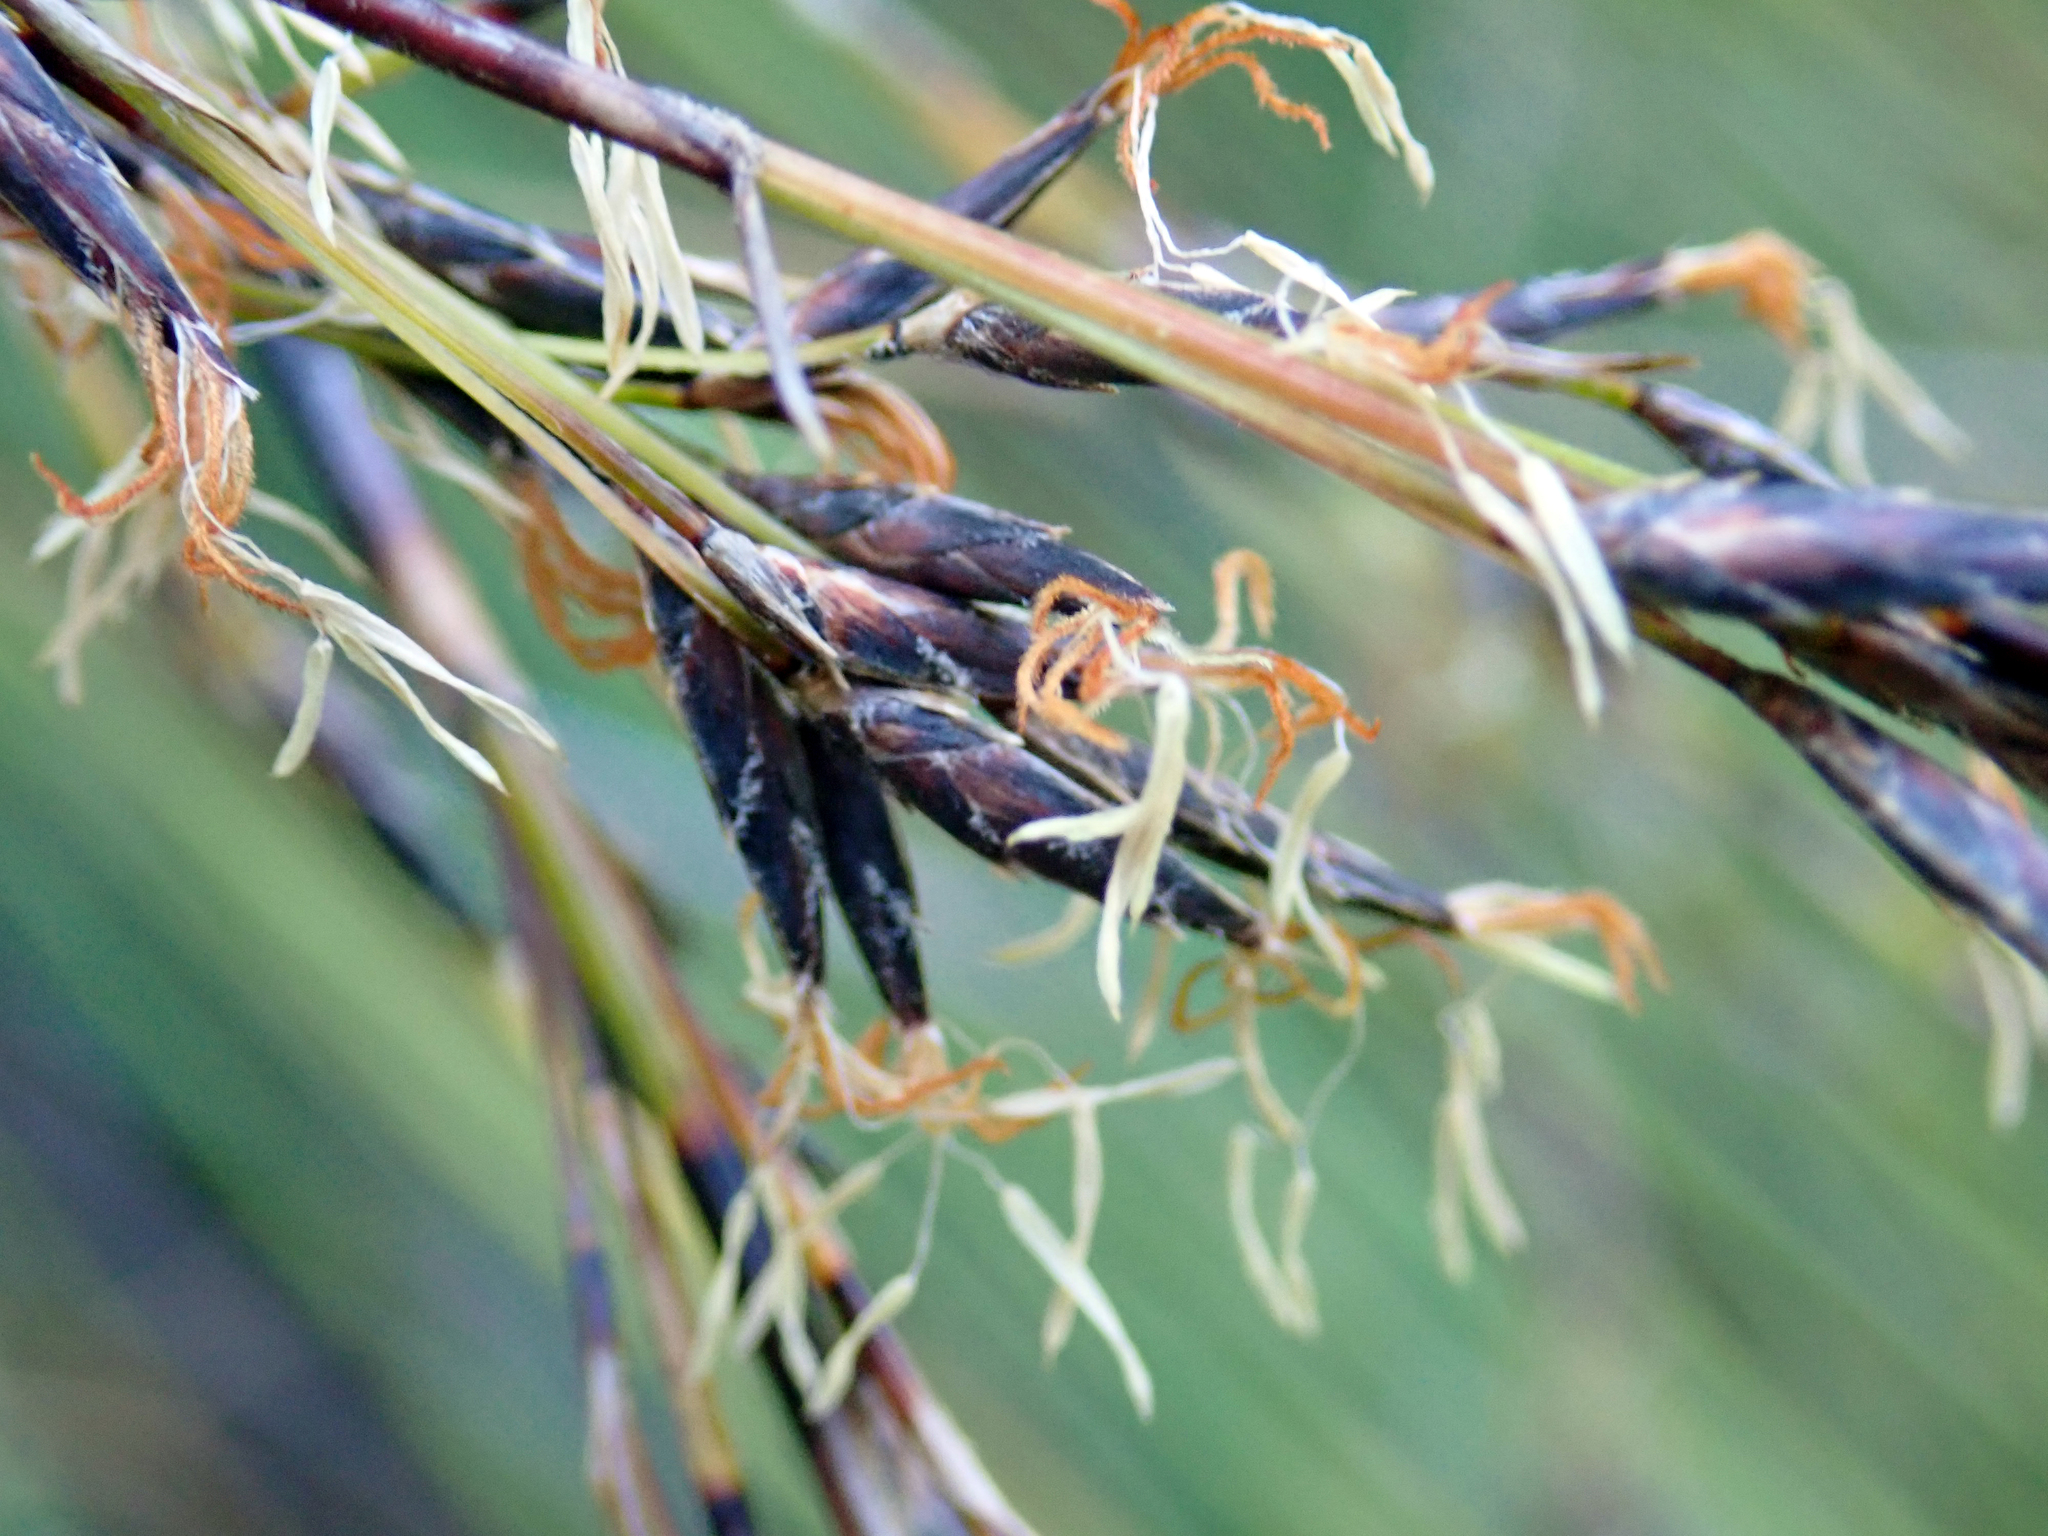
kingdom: Plantae
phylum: Tracheophyta
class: Liliopsida
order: Poales
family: Cyperaceae
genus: Schoenus
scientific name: Schoenus tendo
